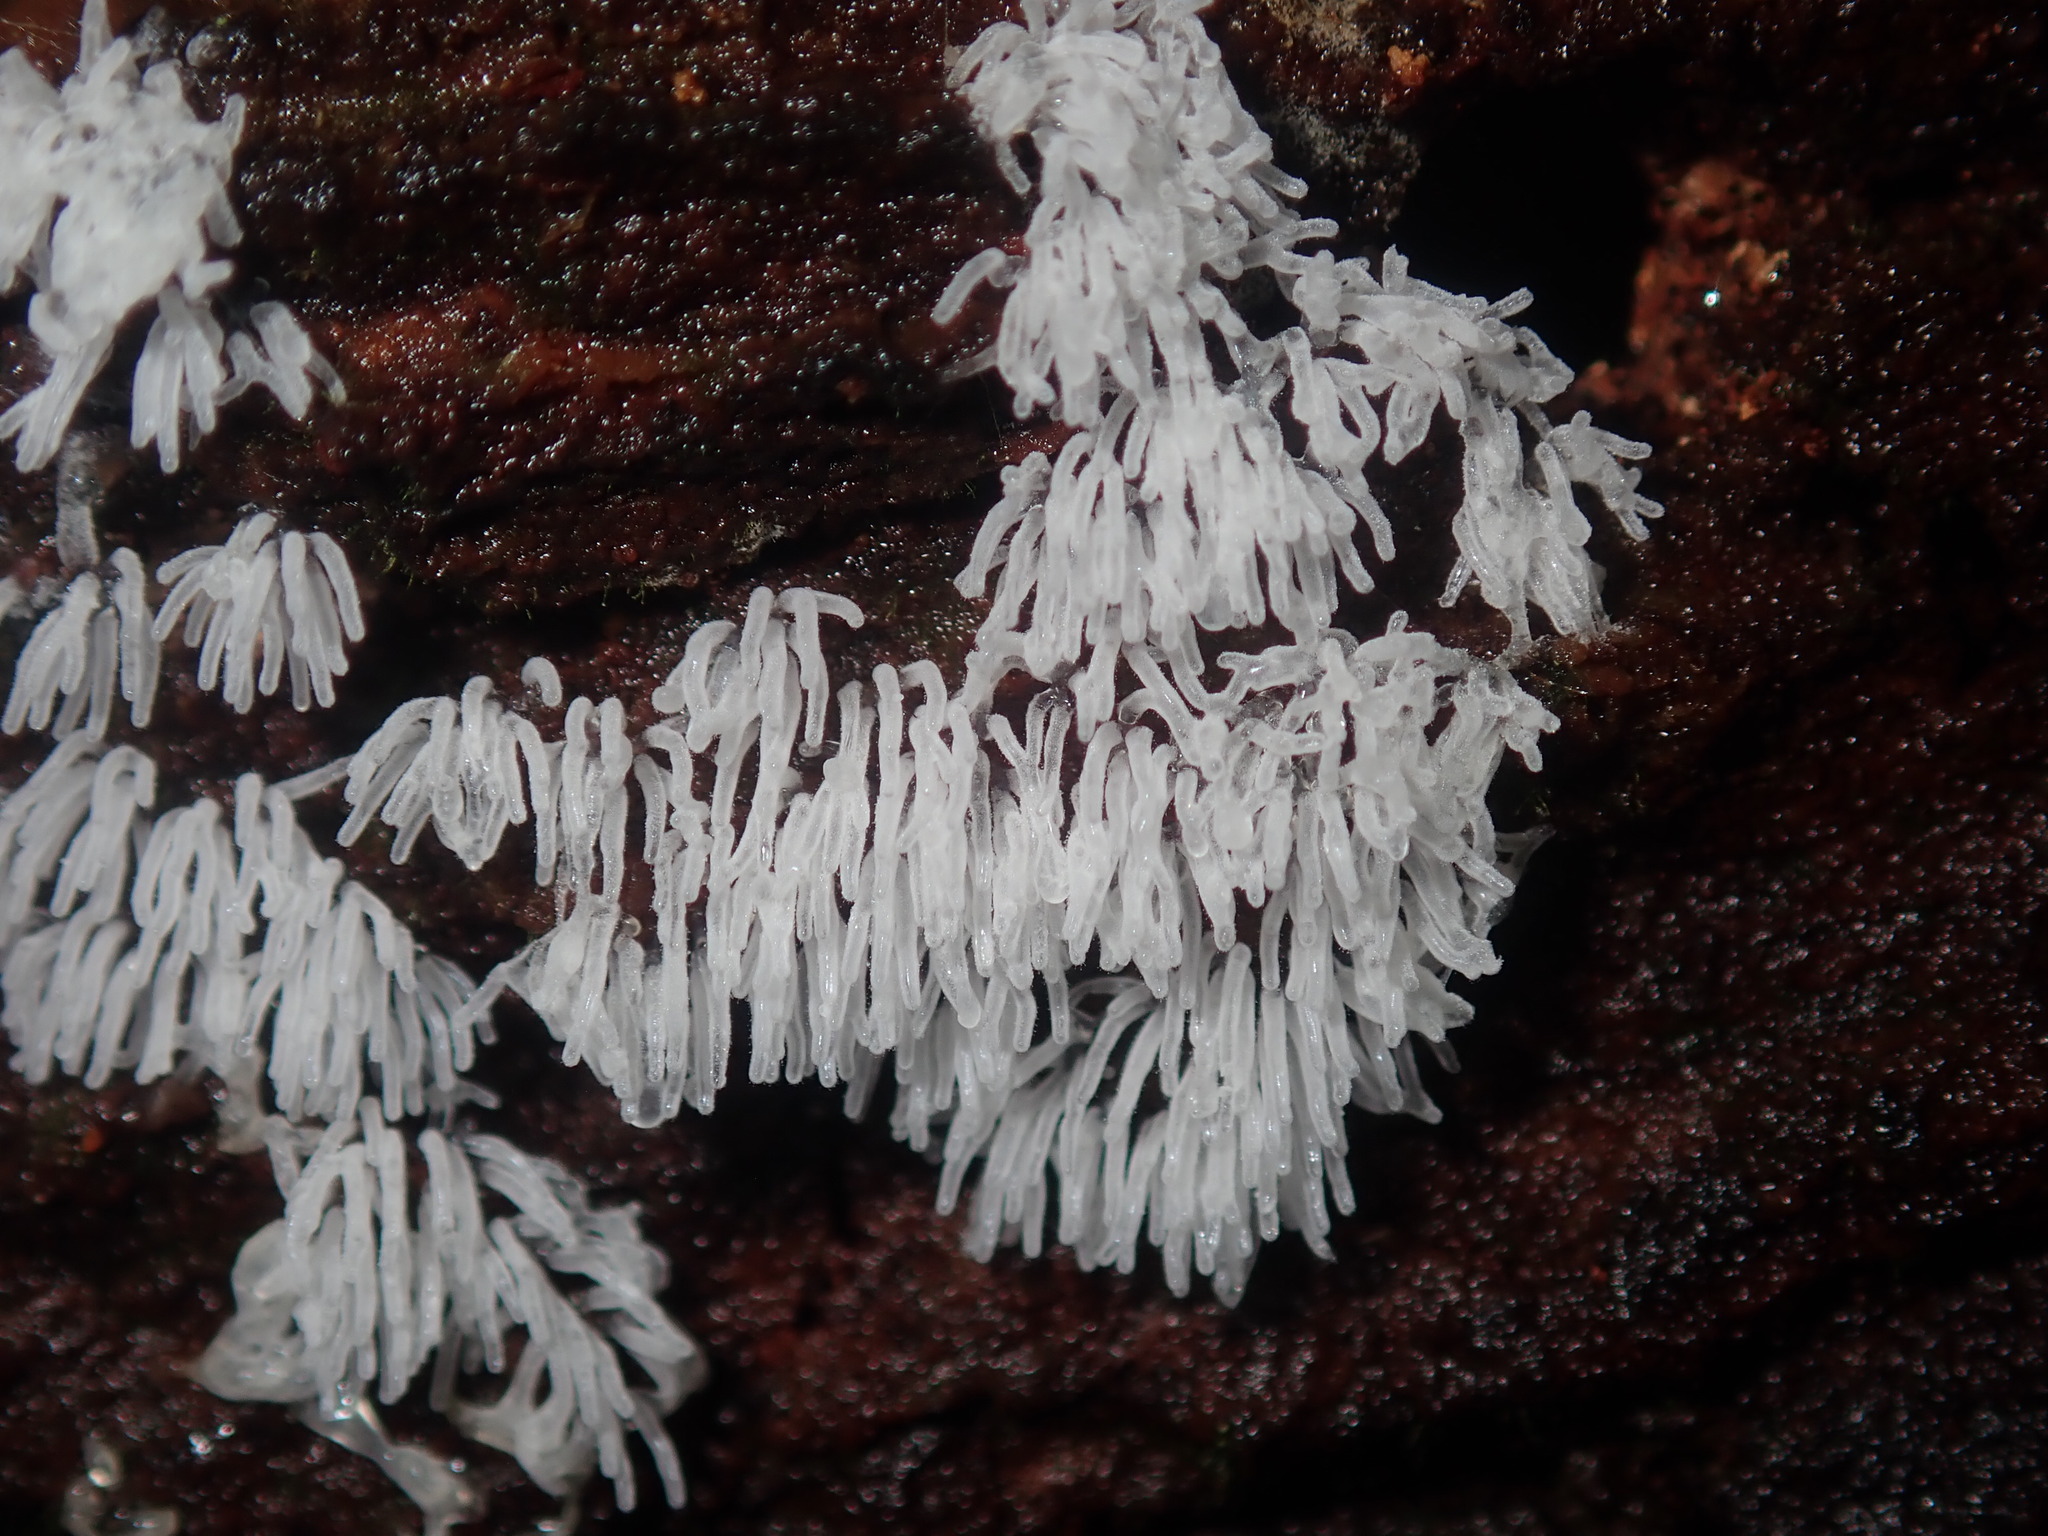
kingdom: Protozoa
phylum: Mycetozoa
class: Protosteliomycetes
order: Ceratiomyxales
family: Ceratiomyxaceae
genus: Ceratiomyxa
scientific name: Ceratiomyxa fruticulosa
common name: Honeycomb coral slime mold
